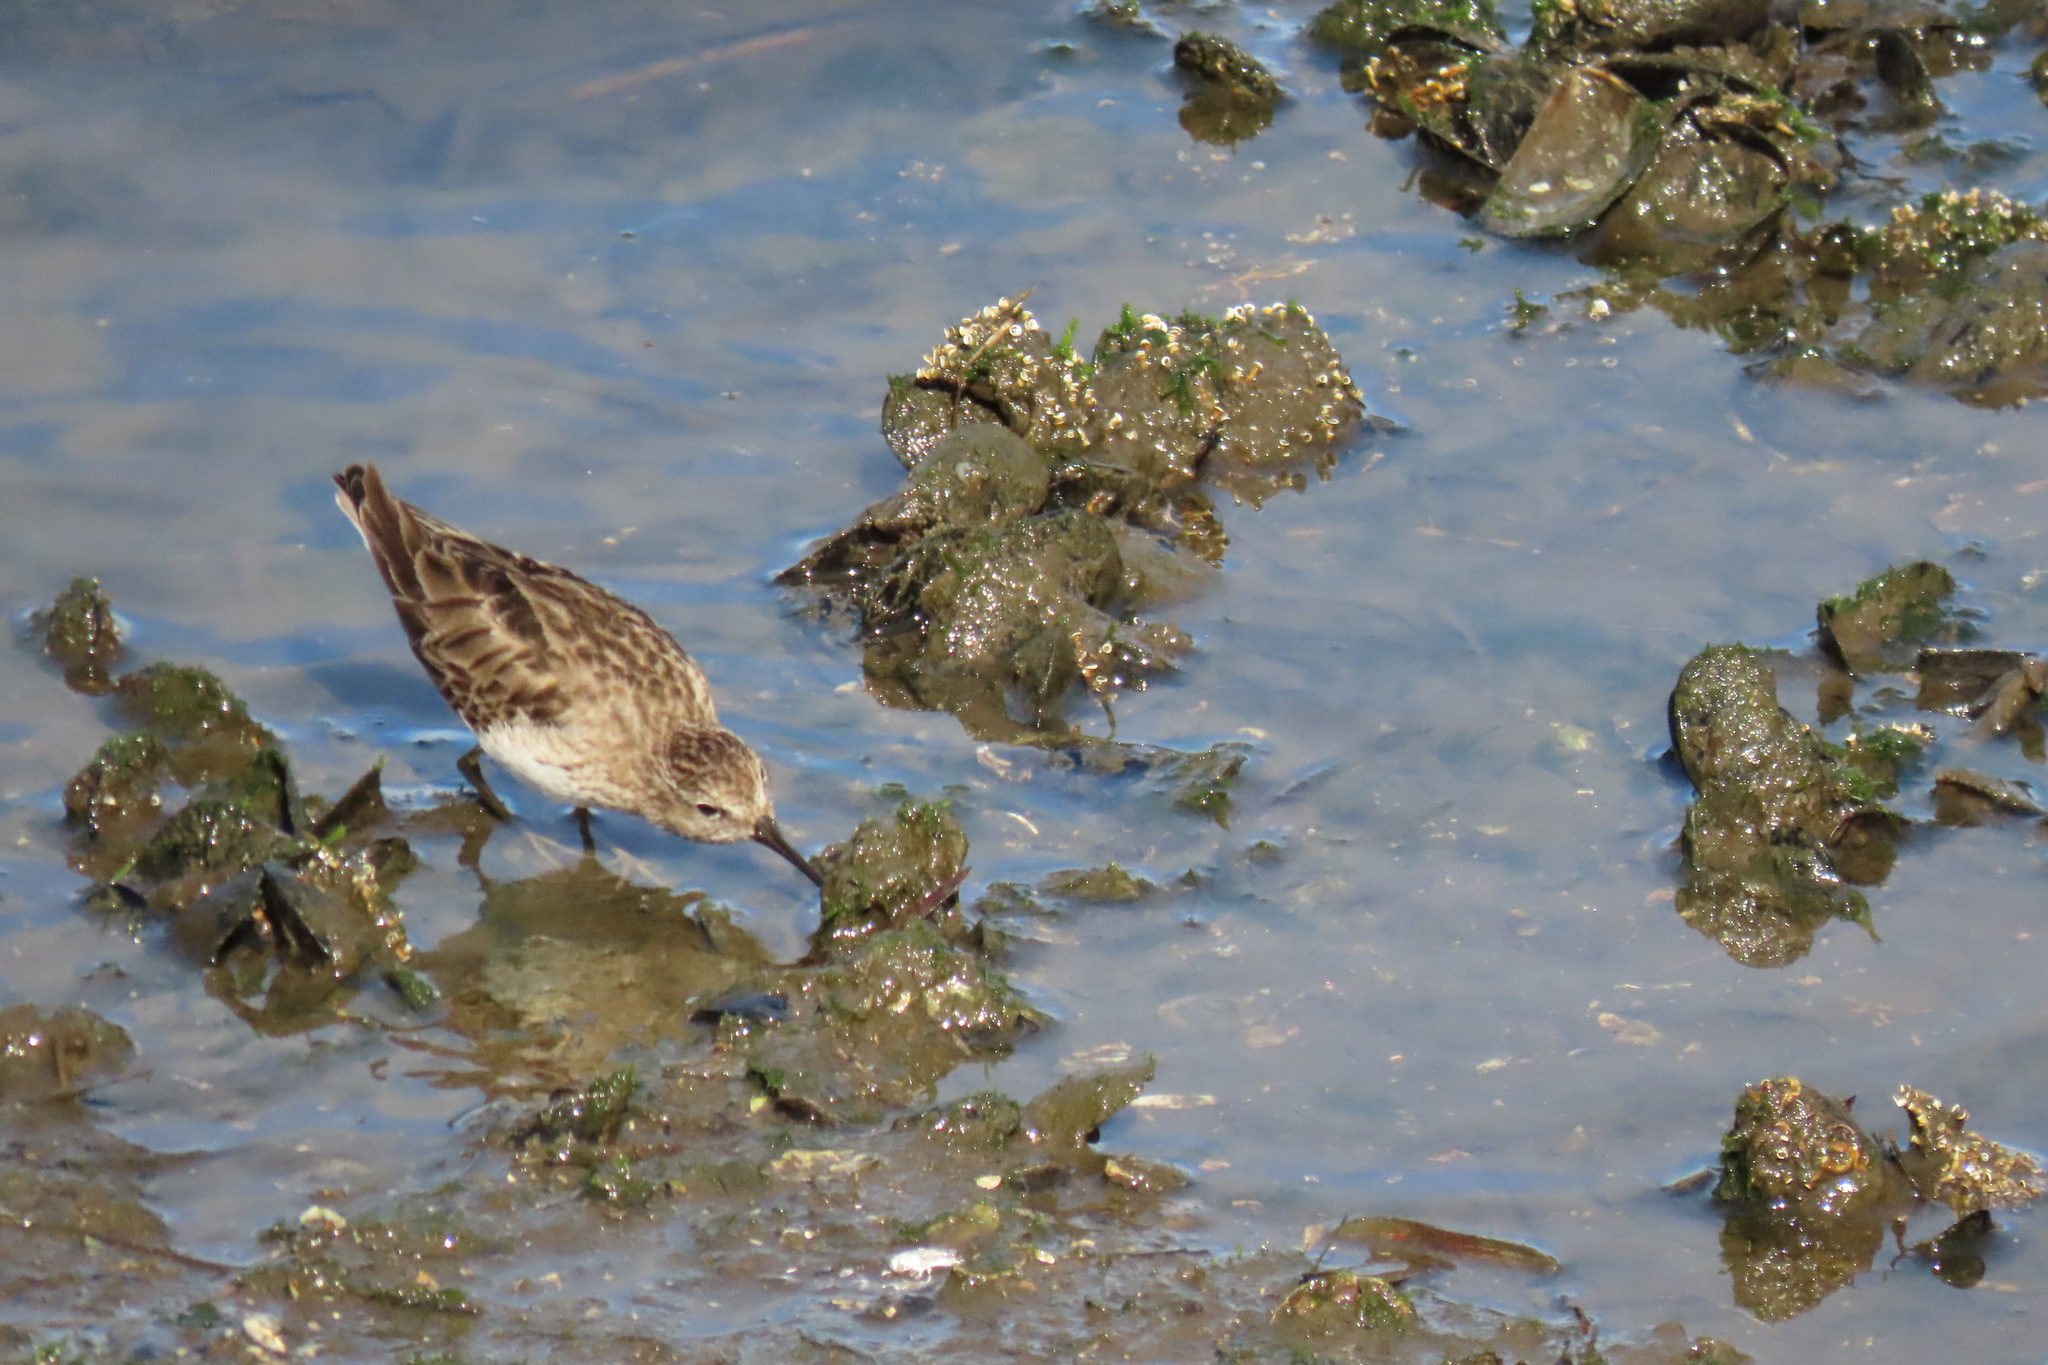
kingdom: Animalia
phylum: Chordata
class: Aves
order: Charadriiformes
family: Scolopacidae
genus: Calidris
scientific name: Calidris minutilla
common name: Least sandpiper
